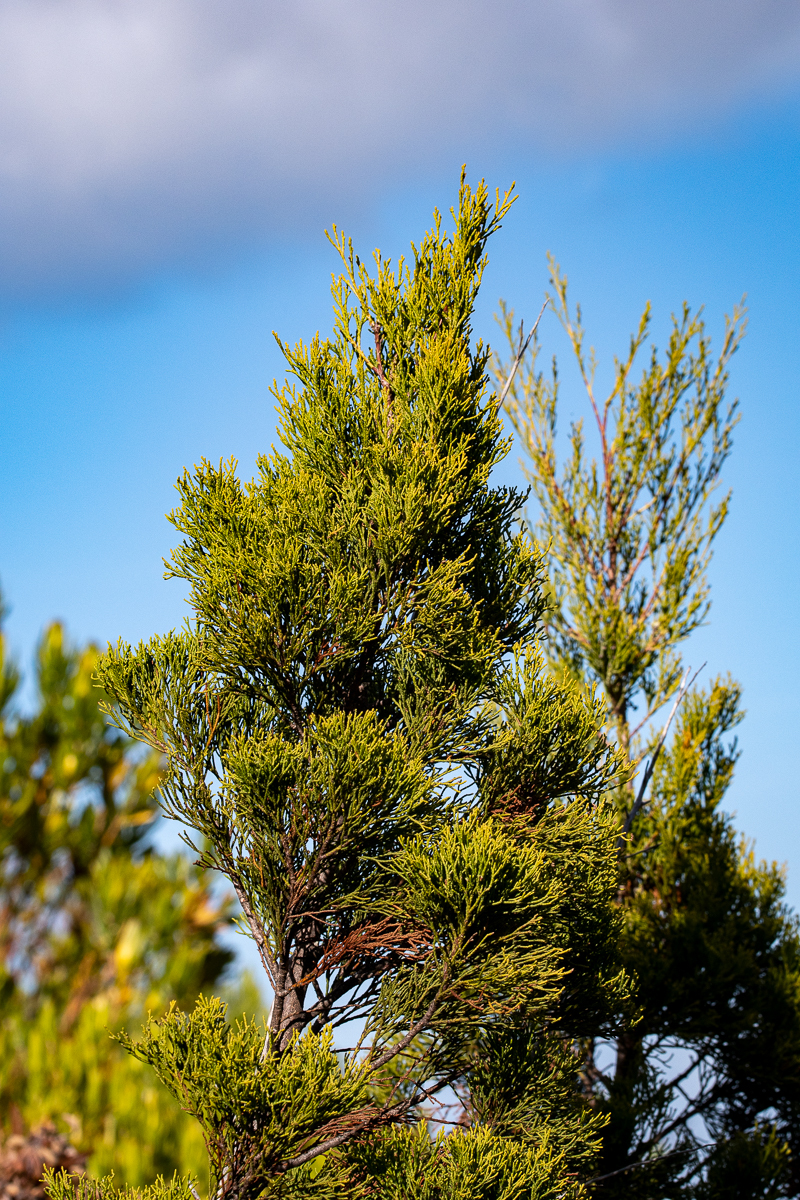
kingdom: Plantae
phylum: Tracheophyta
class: Pinopsida
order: Pinales
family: Cupressaceae
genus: Widdringtonia
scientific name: Widdringtonia nodiflora
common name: Cape cypress
